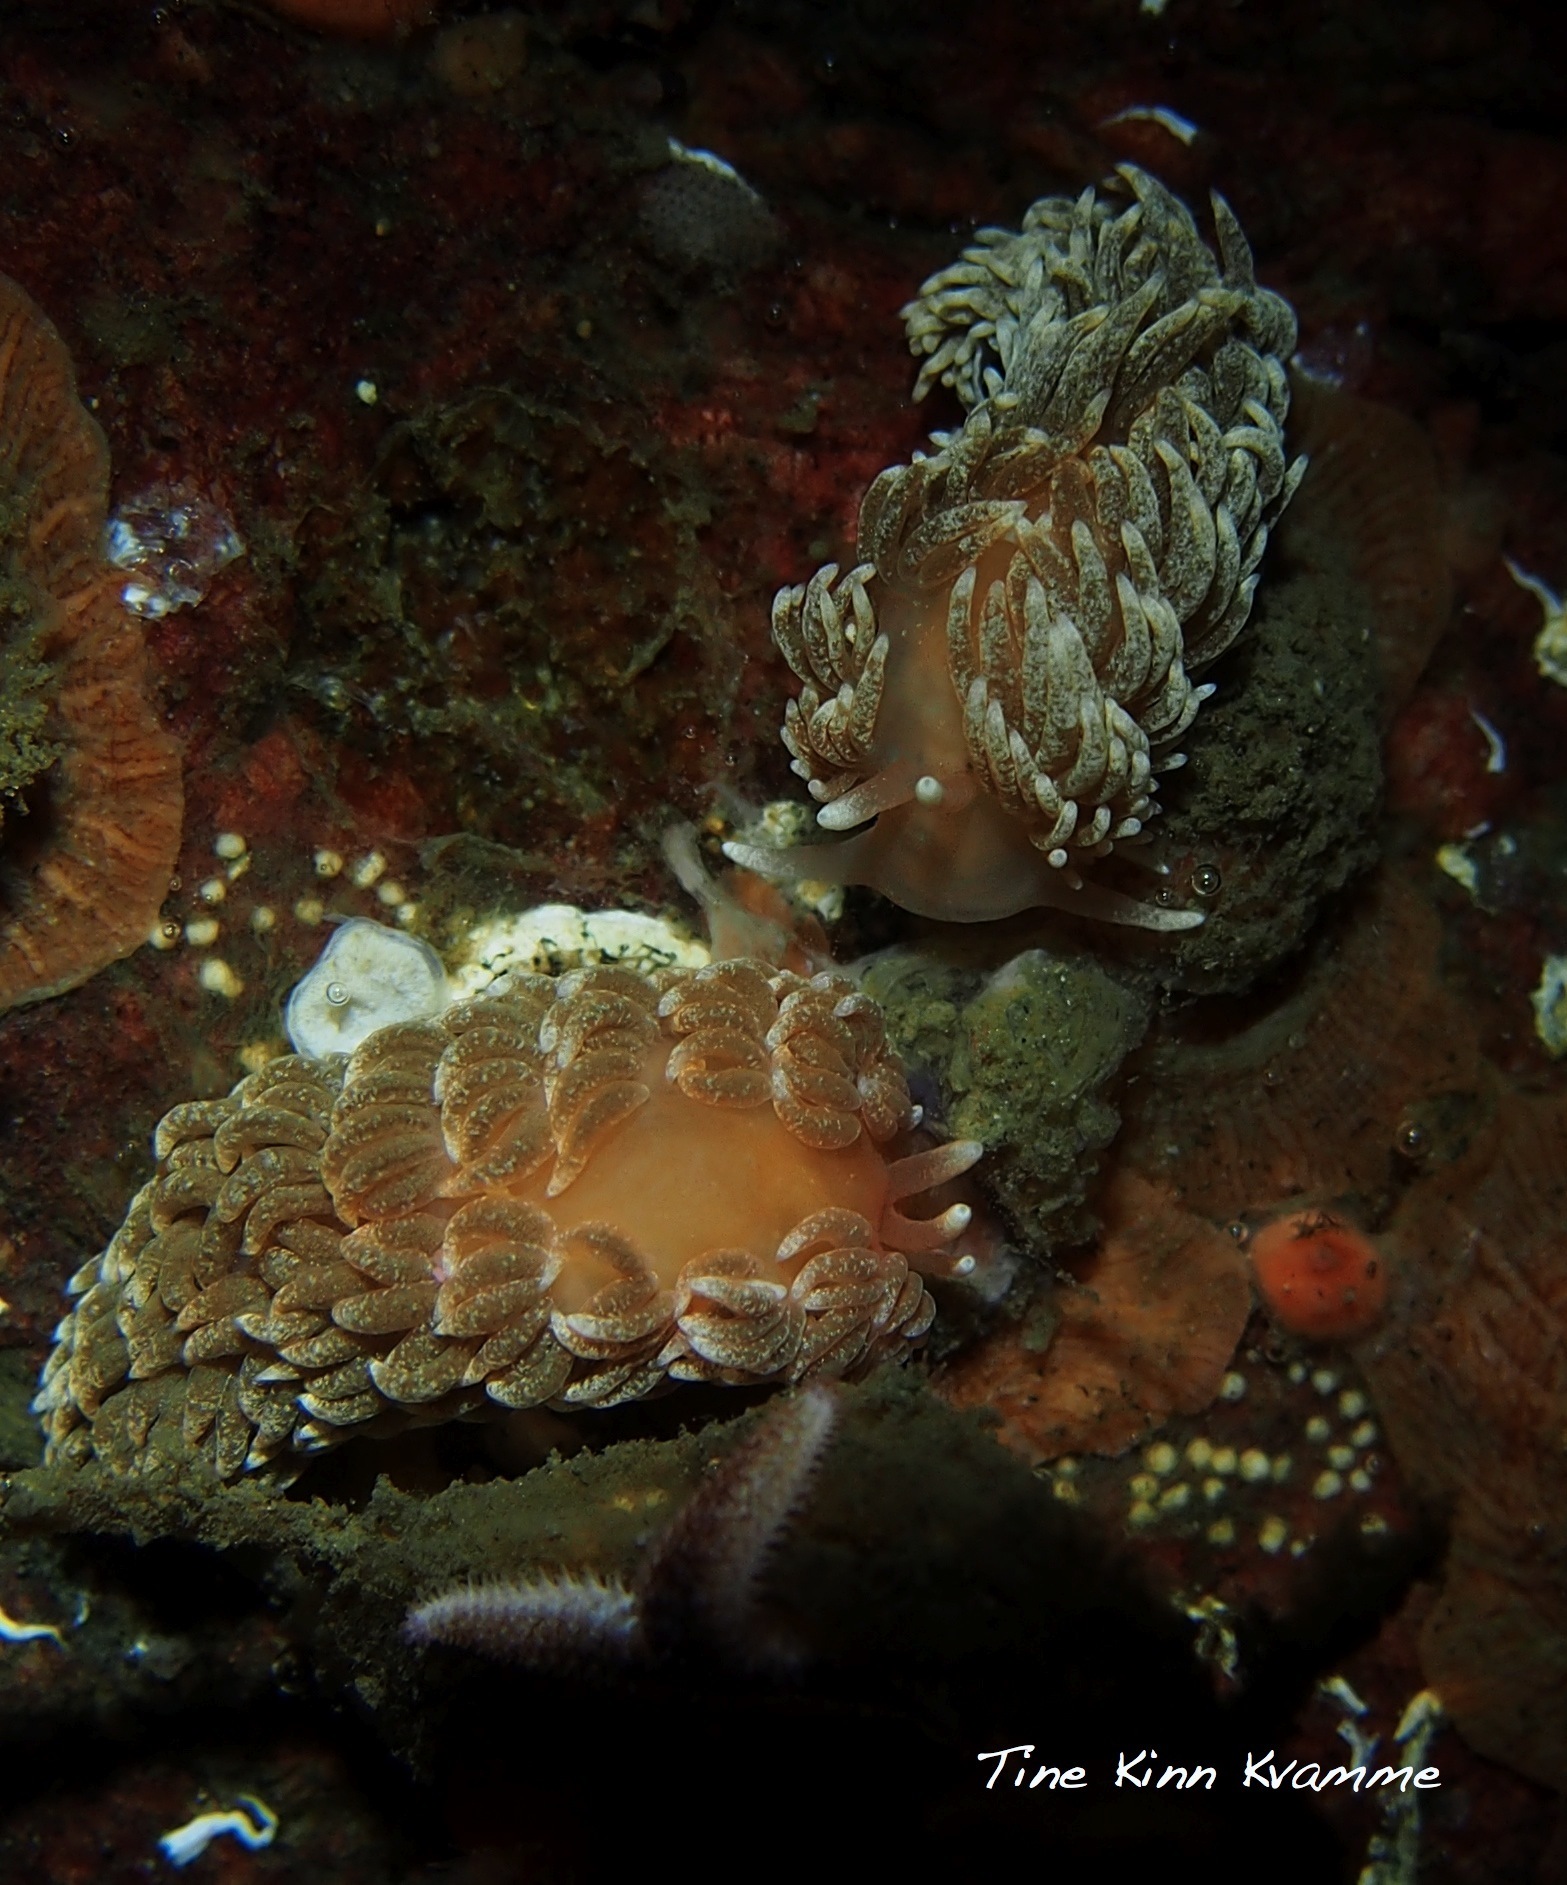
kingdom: Animalia
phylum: Mollusca
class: Gastropoda
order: Nudibranchia
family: Aeolidiidae
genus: Aeolidiella
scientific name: Aeolidiella glauca
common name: Orange-brown aeolid
